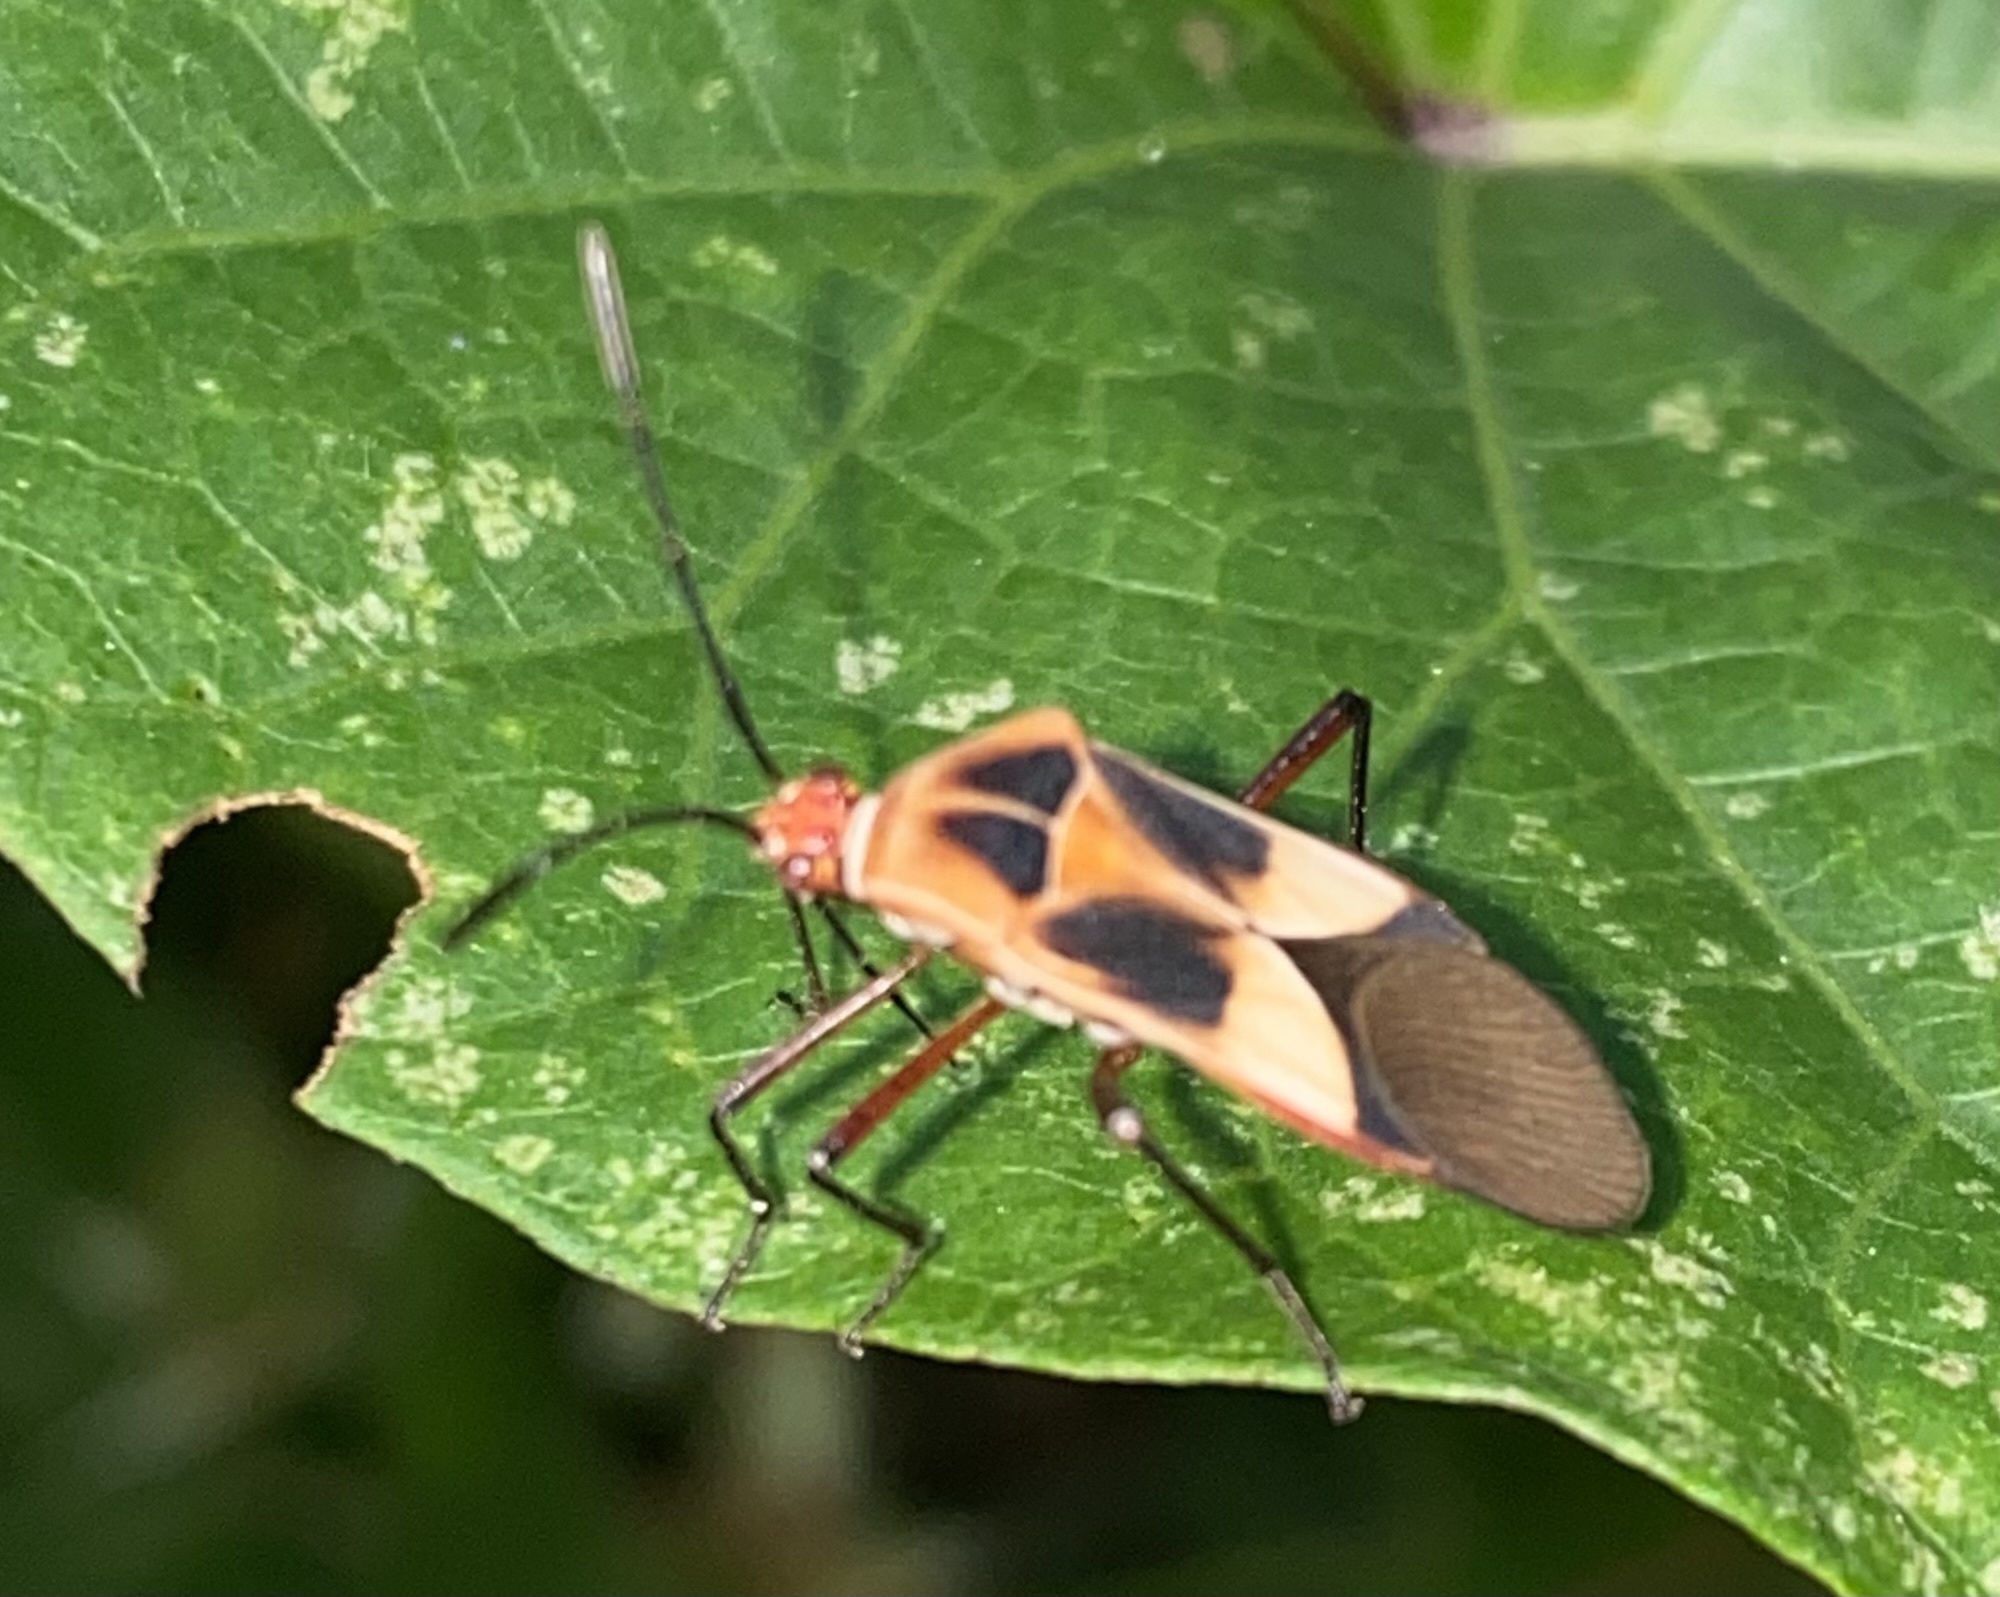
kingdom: Animalia
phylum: Arthropoda
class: Insecta
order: Hemiptera
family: Coreidae
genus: Hypselonotus
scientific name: Hypselonotus interruptus
